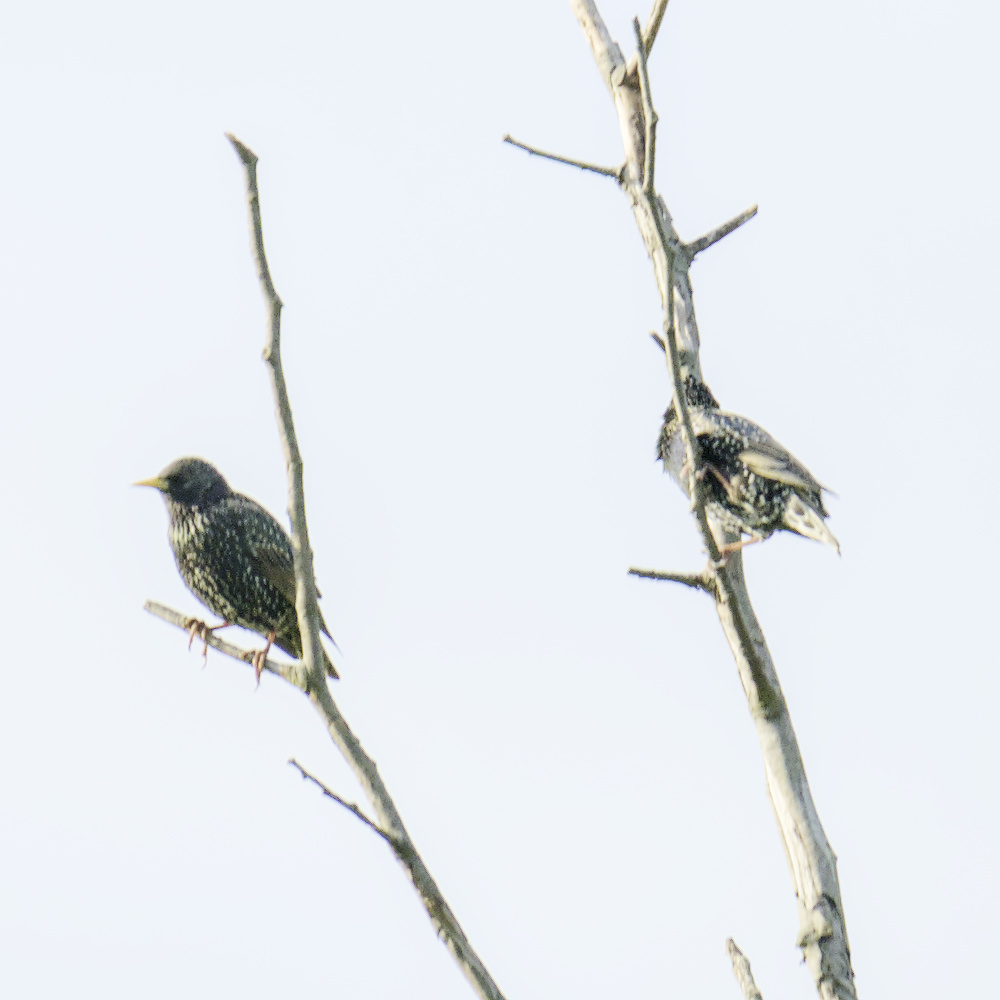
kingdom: Animalia
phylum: Chordata
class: Aves
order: Passeriformes
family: Sturnidae
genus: Sturnus
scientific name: Sturnus vulgaris
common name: Common starling
